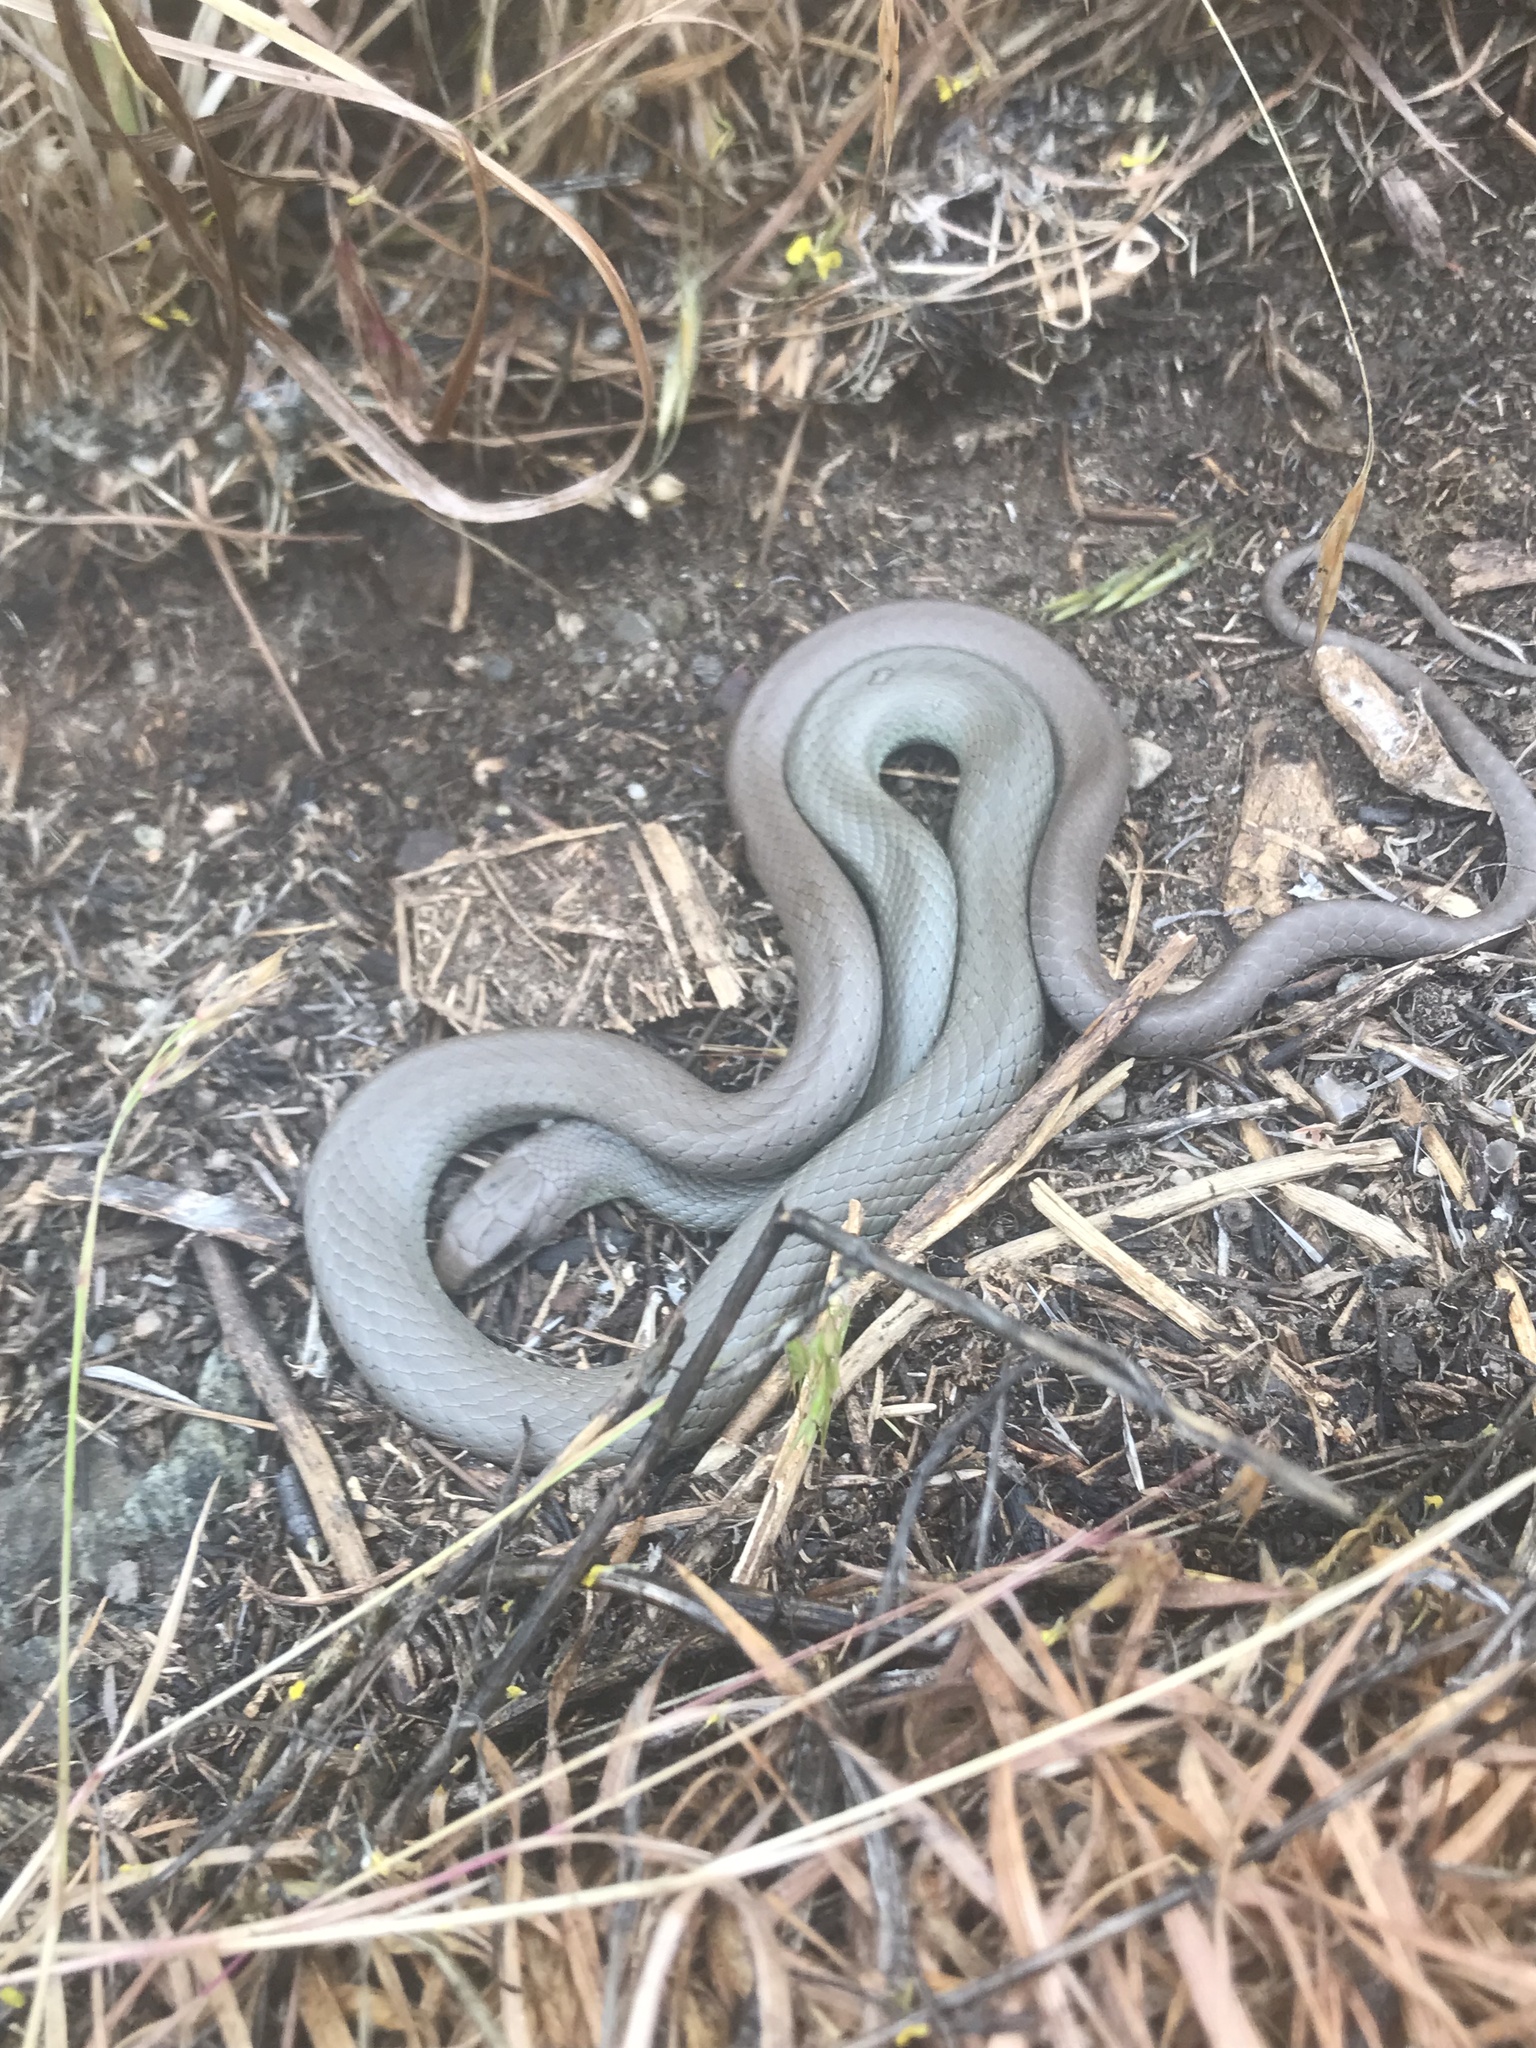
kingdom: Animalia
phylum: Chordata
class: Squamata
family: Colubridae
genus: Coluber
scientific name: Coluber constrictor
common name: Eastern racer
